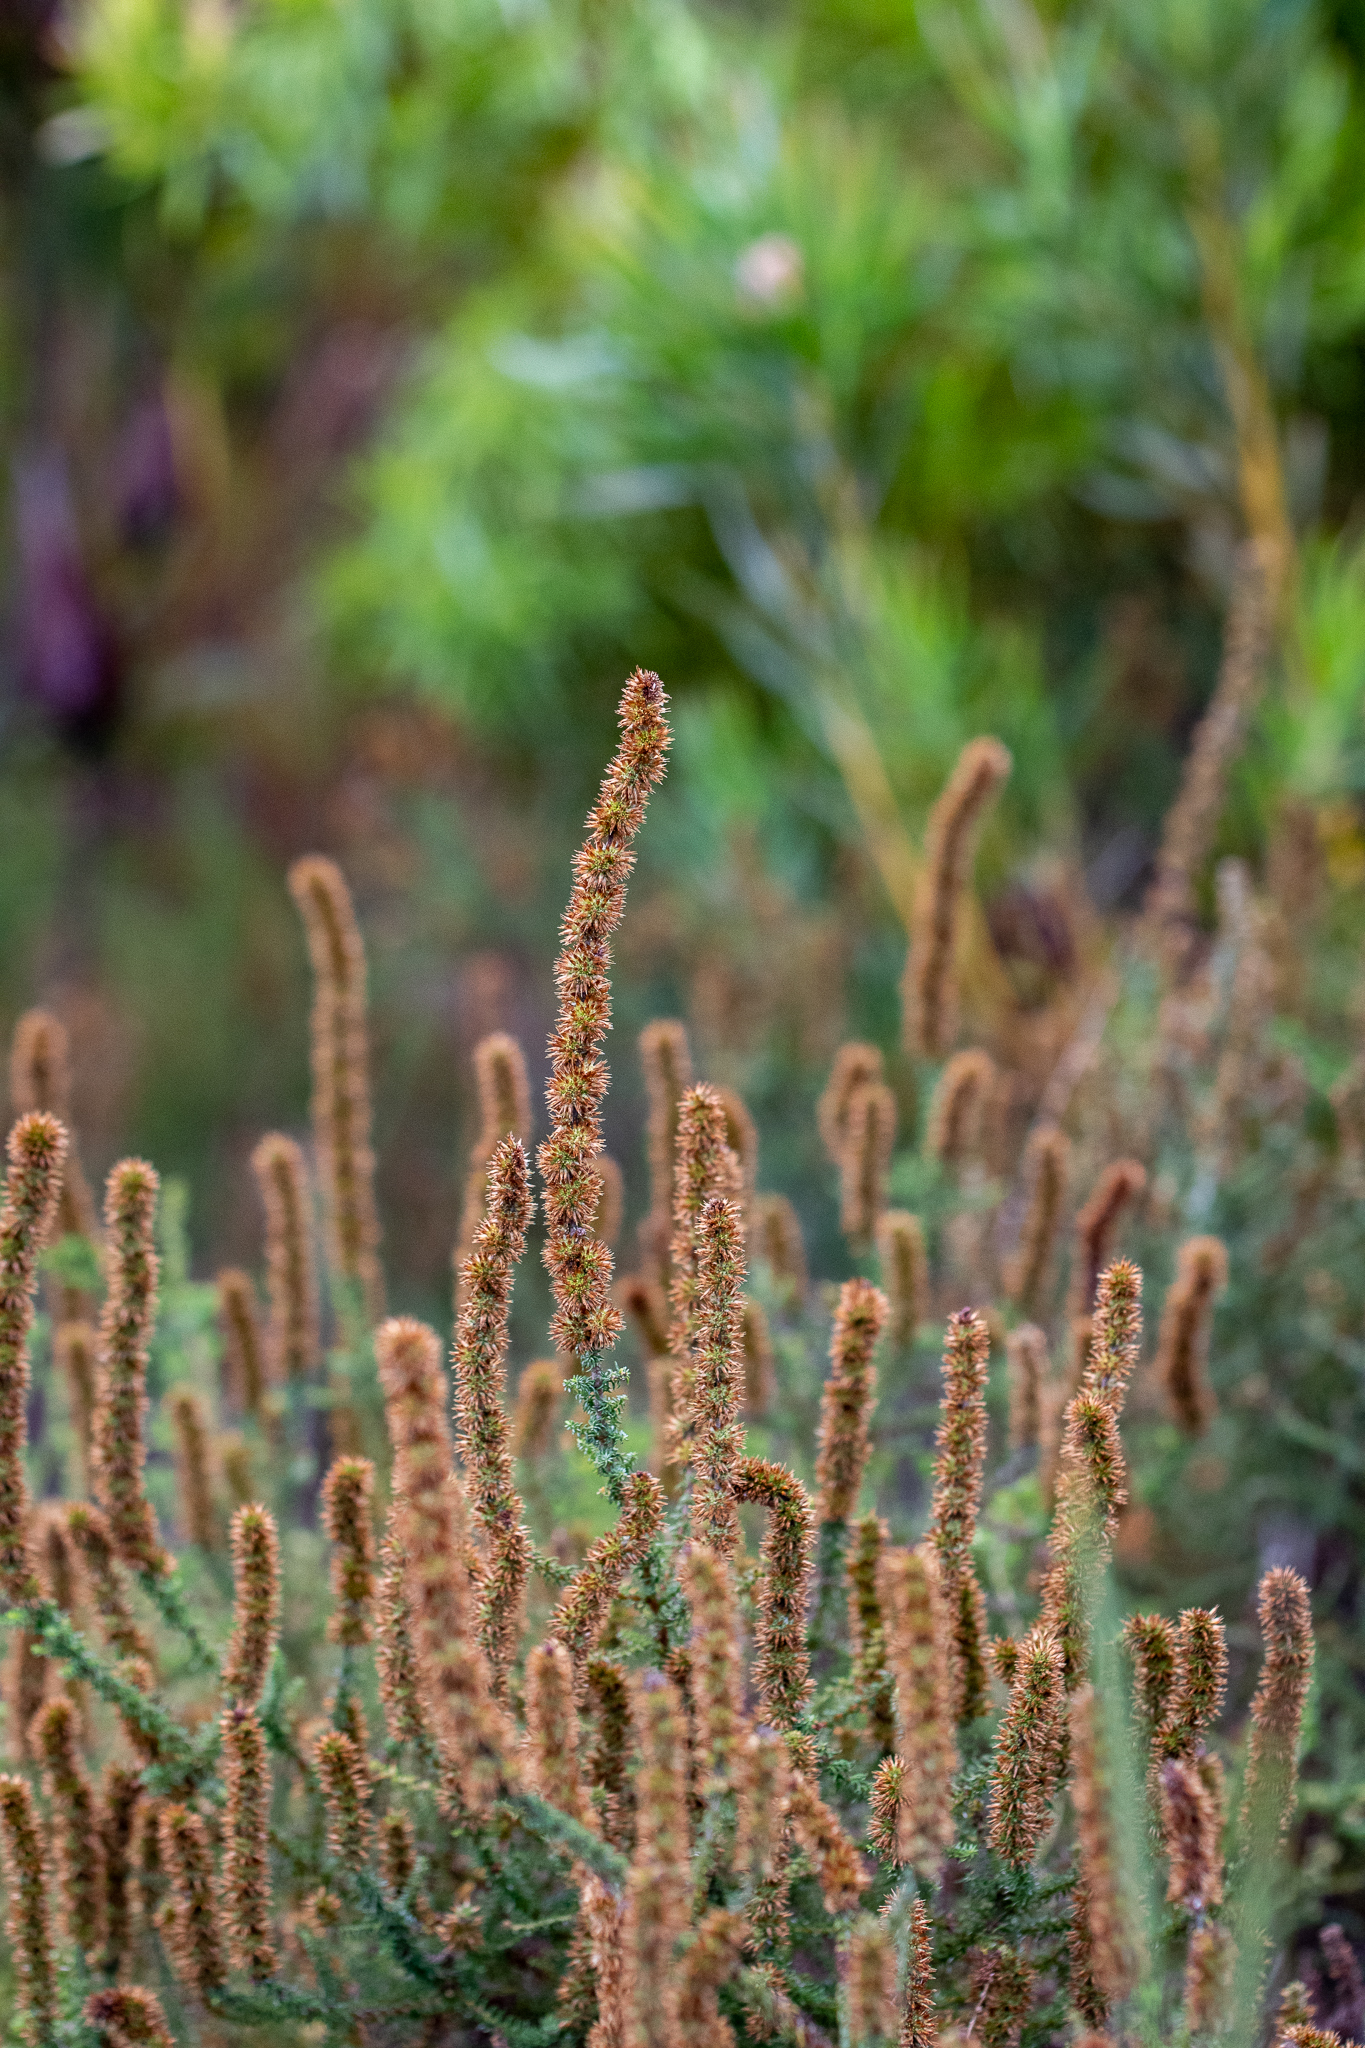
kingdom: Plantae
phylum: Tracheophyta
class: Magnoliopsida
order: Asterales
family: Asteraceae
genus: Seriphium
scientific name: Seriphium cinereum
